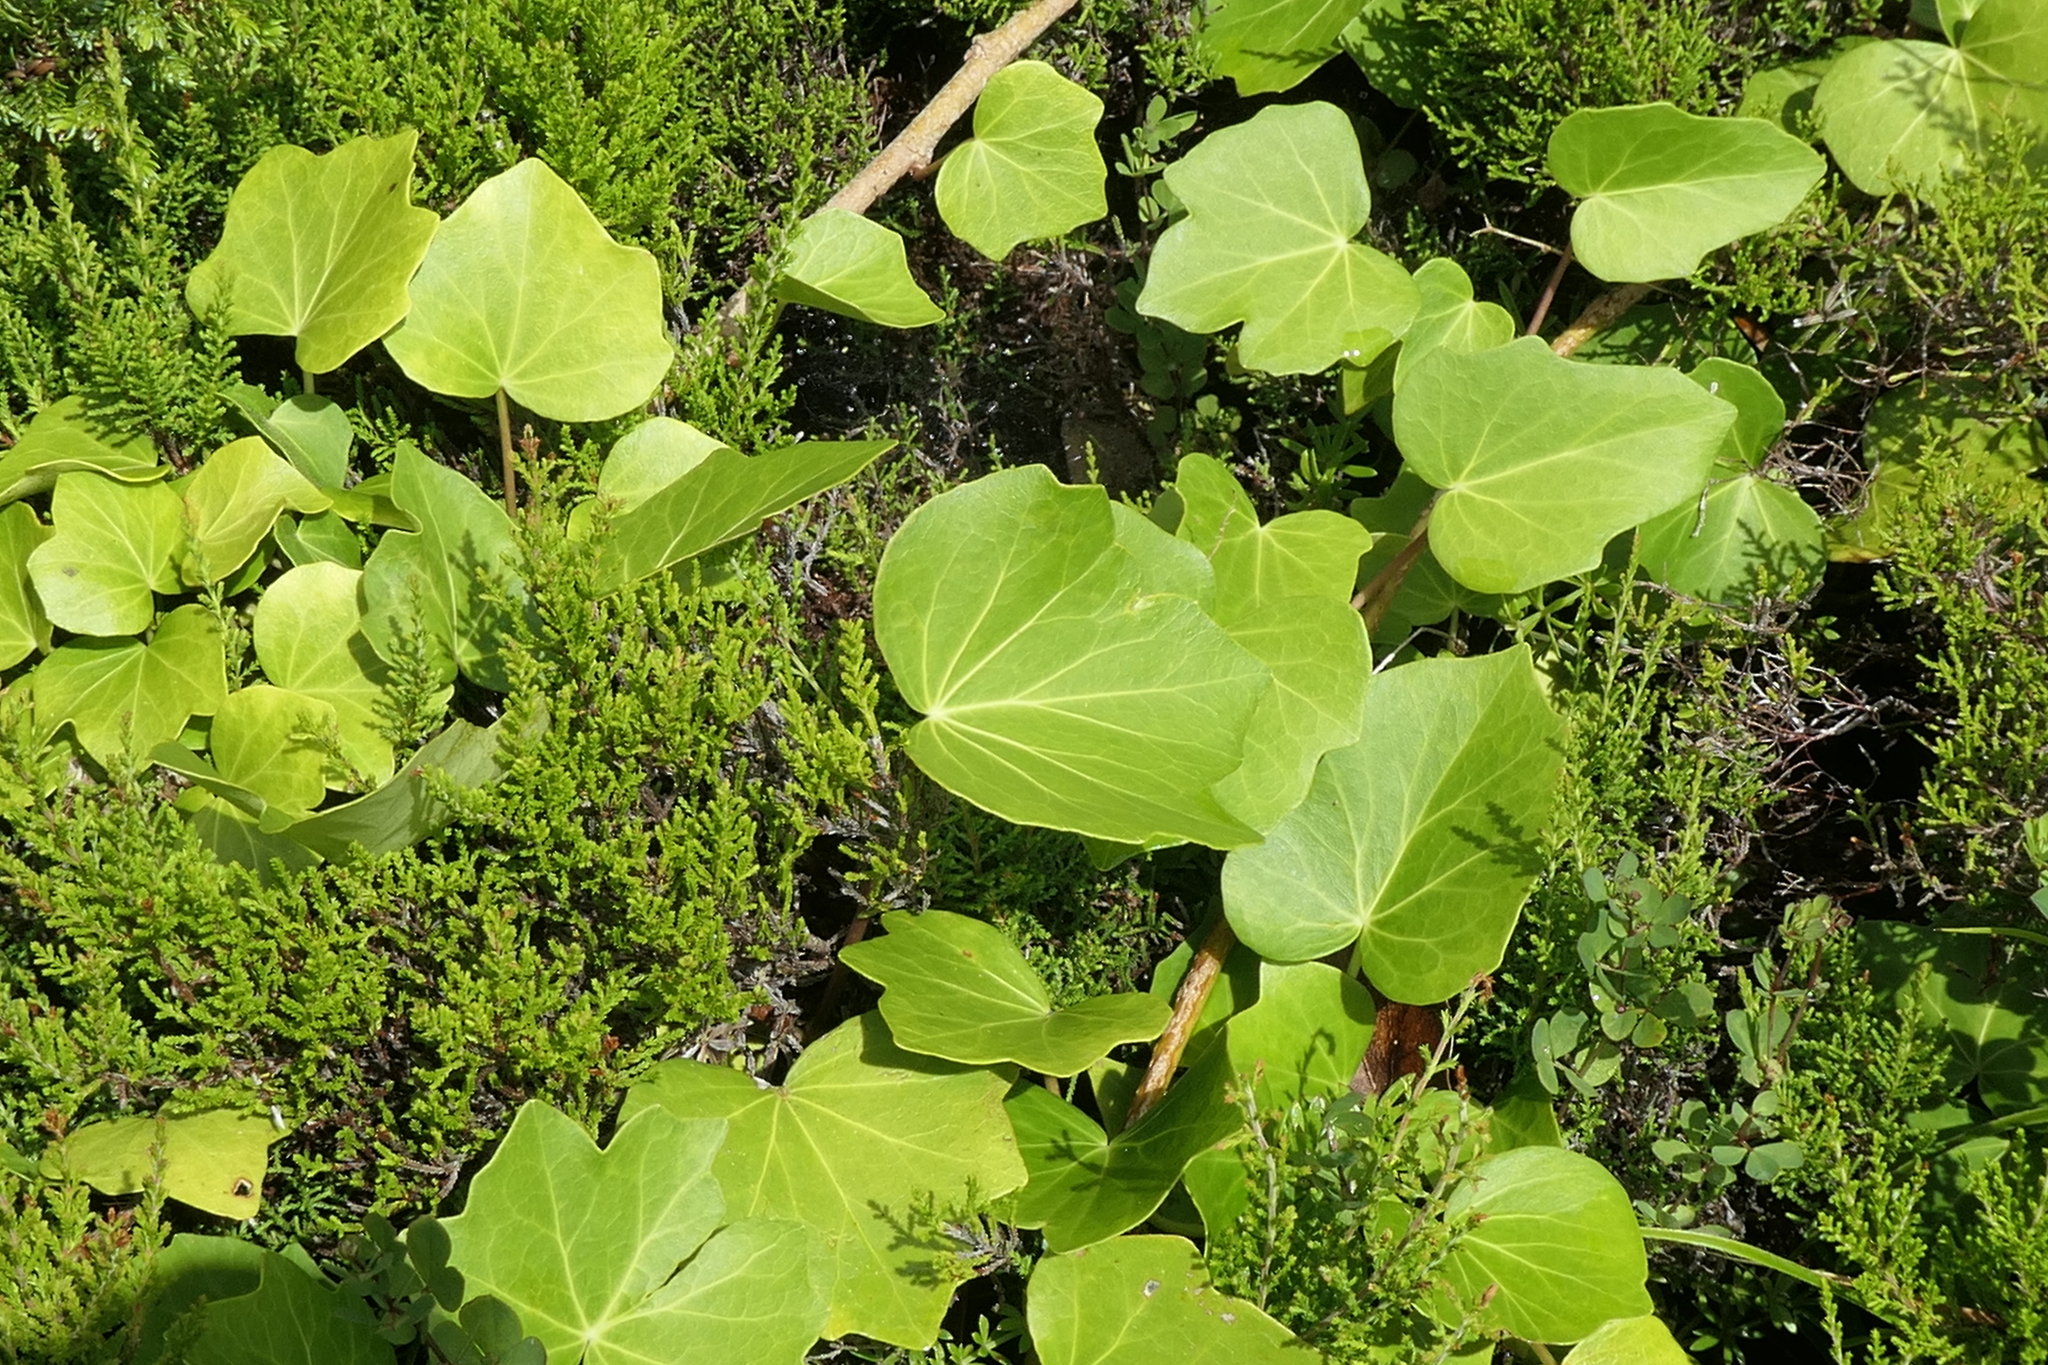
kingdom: Plantae
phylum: Tracheophyta
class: Magnoliopsida
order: Apiales
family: Araliaceae
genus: Hedera
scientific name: Hedera azorica
